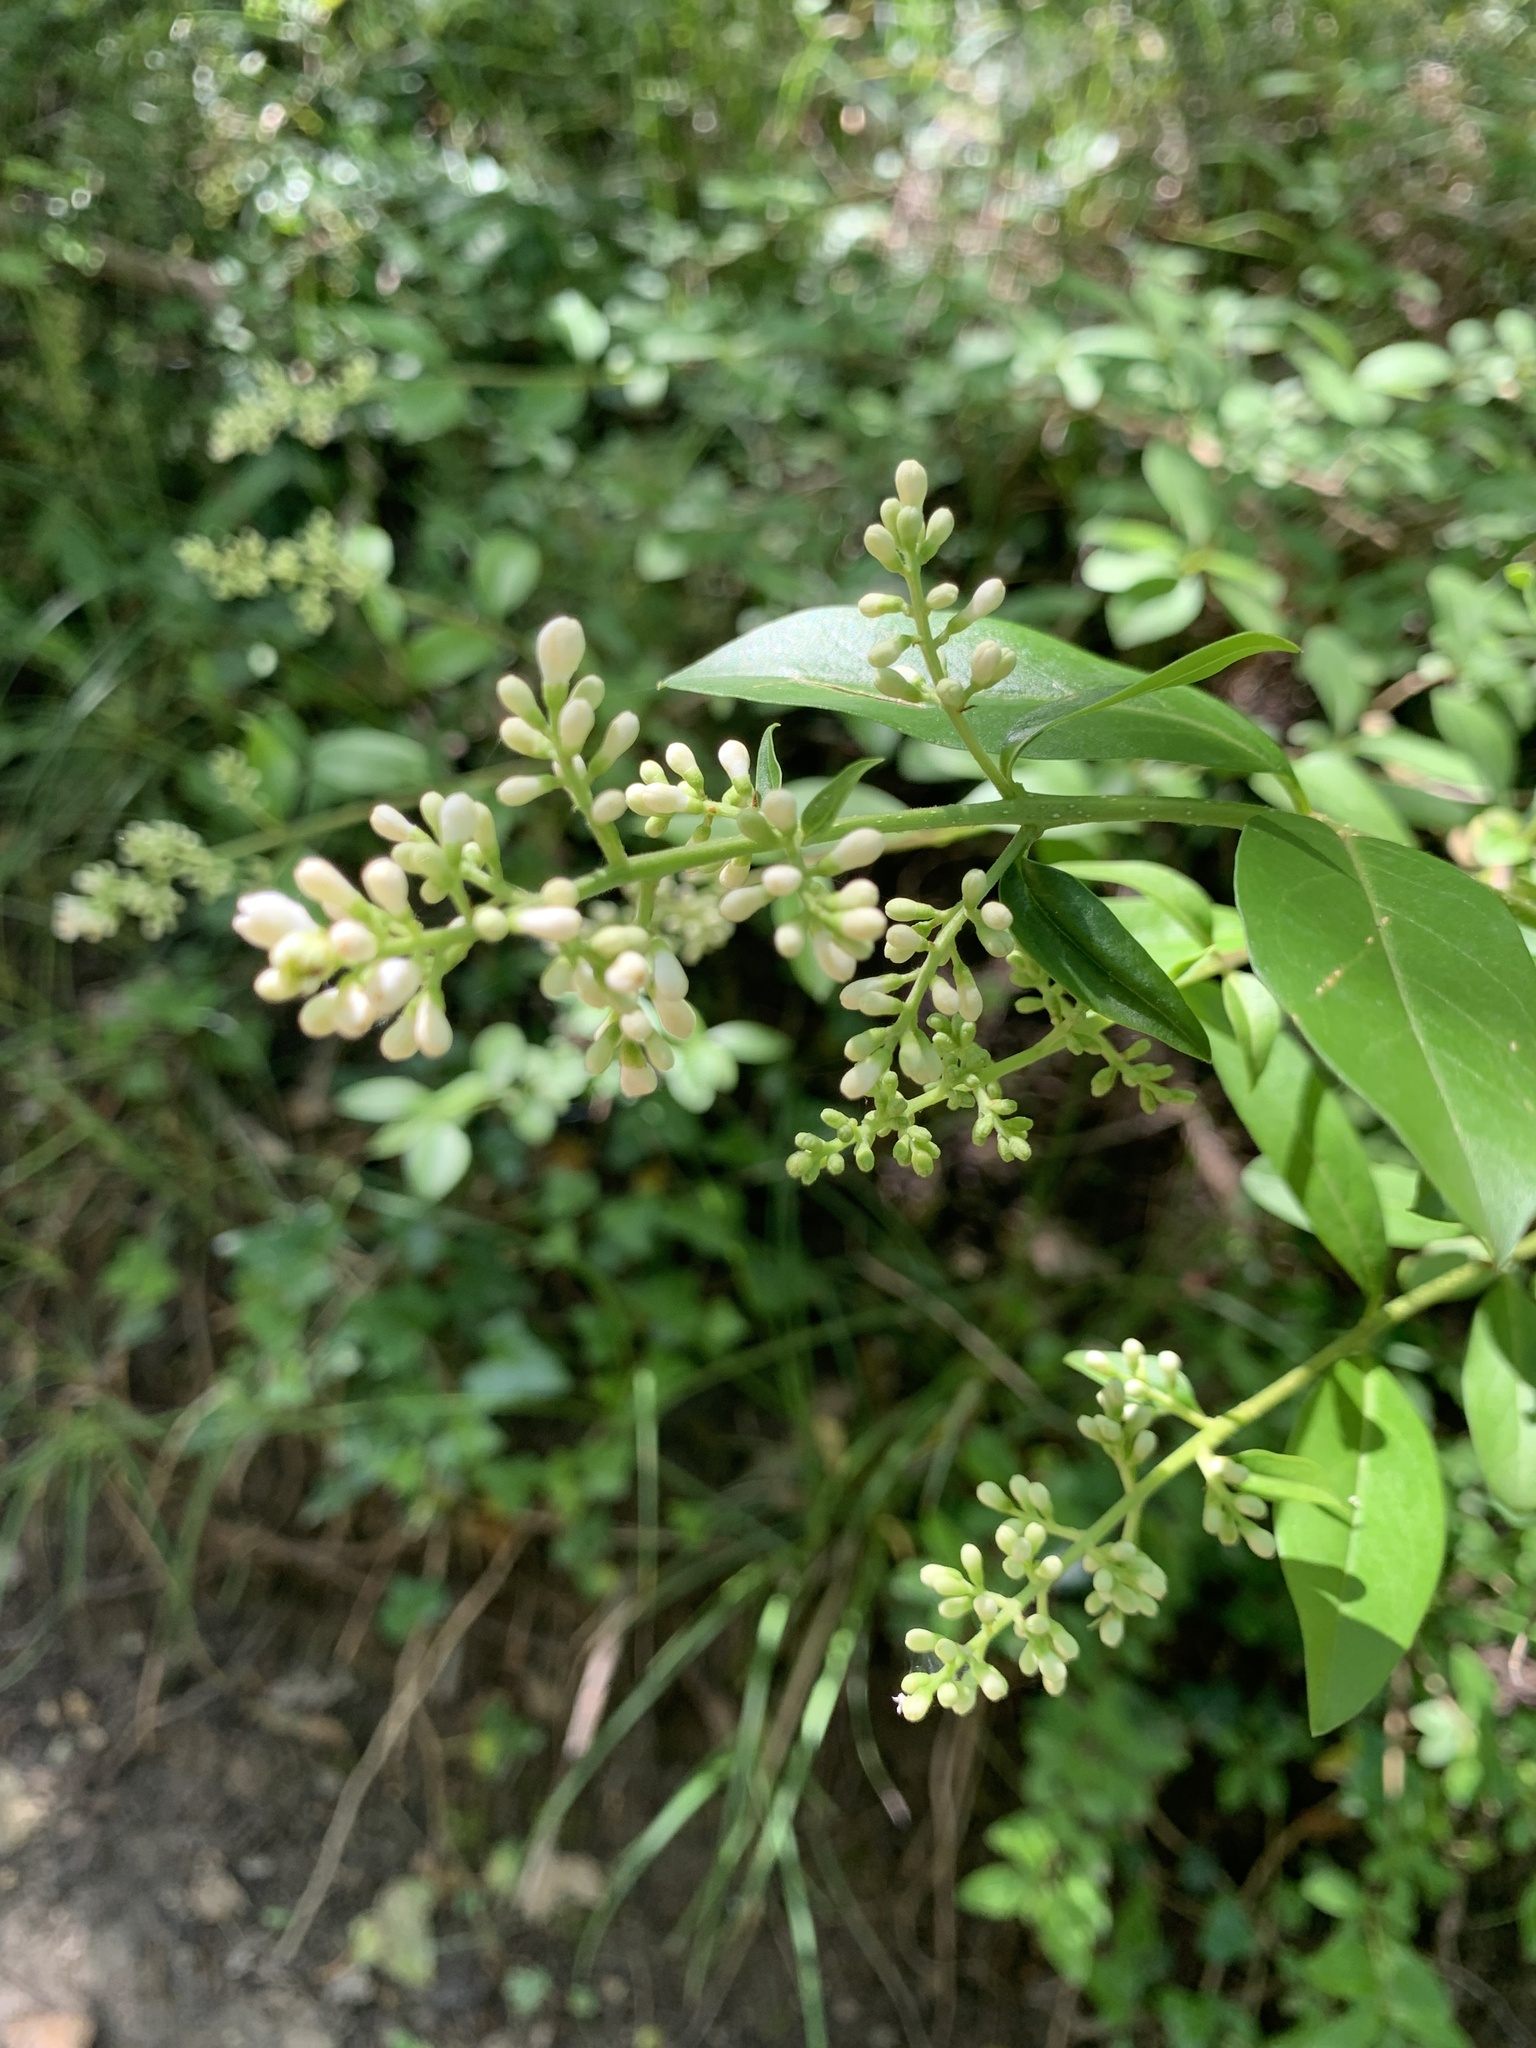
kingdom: Plantae
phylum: Tracheophyta
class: Magnoliopsida
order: Lamiales
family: Oleaceae
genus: Ligustrum
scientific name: Ligustrum vulgare
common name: Wild privet
